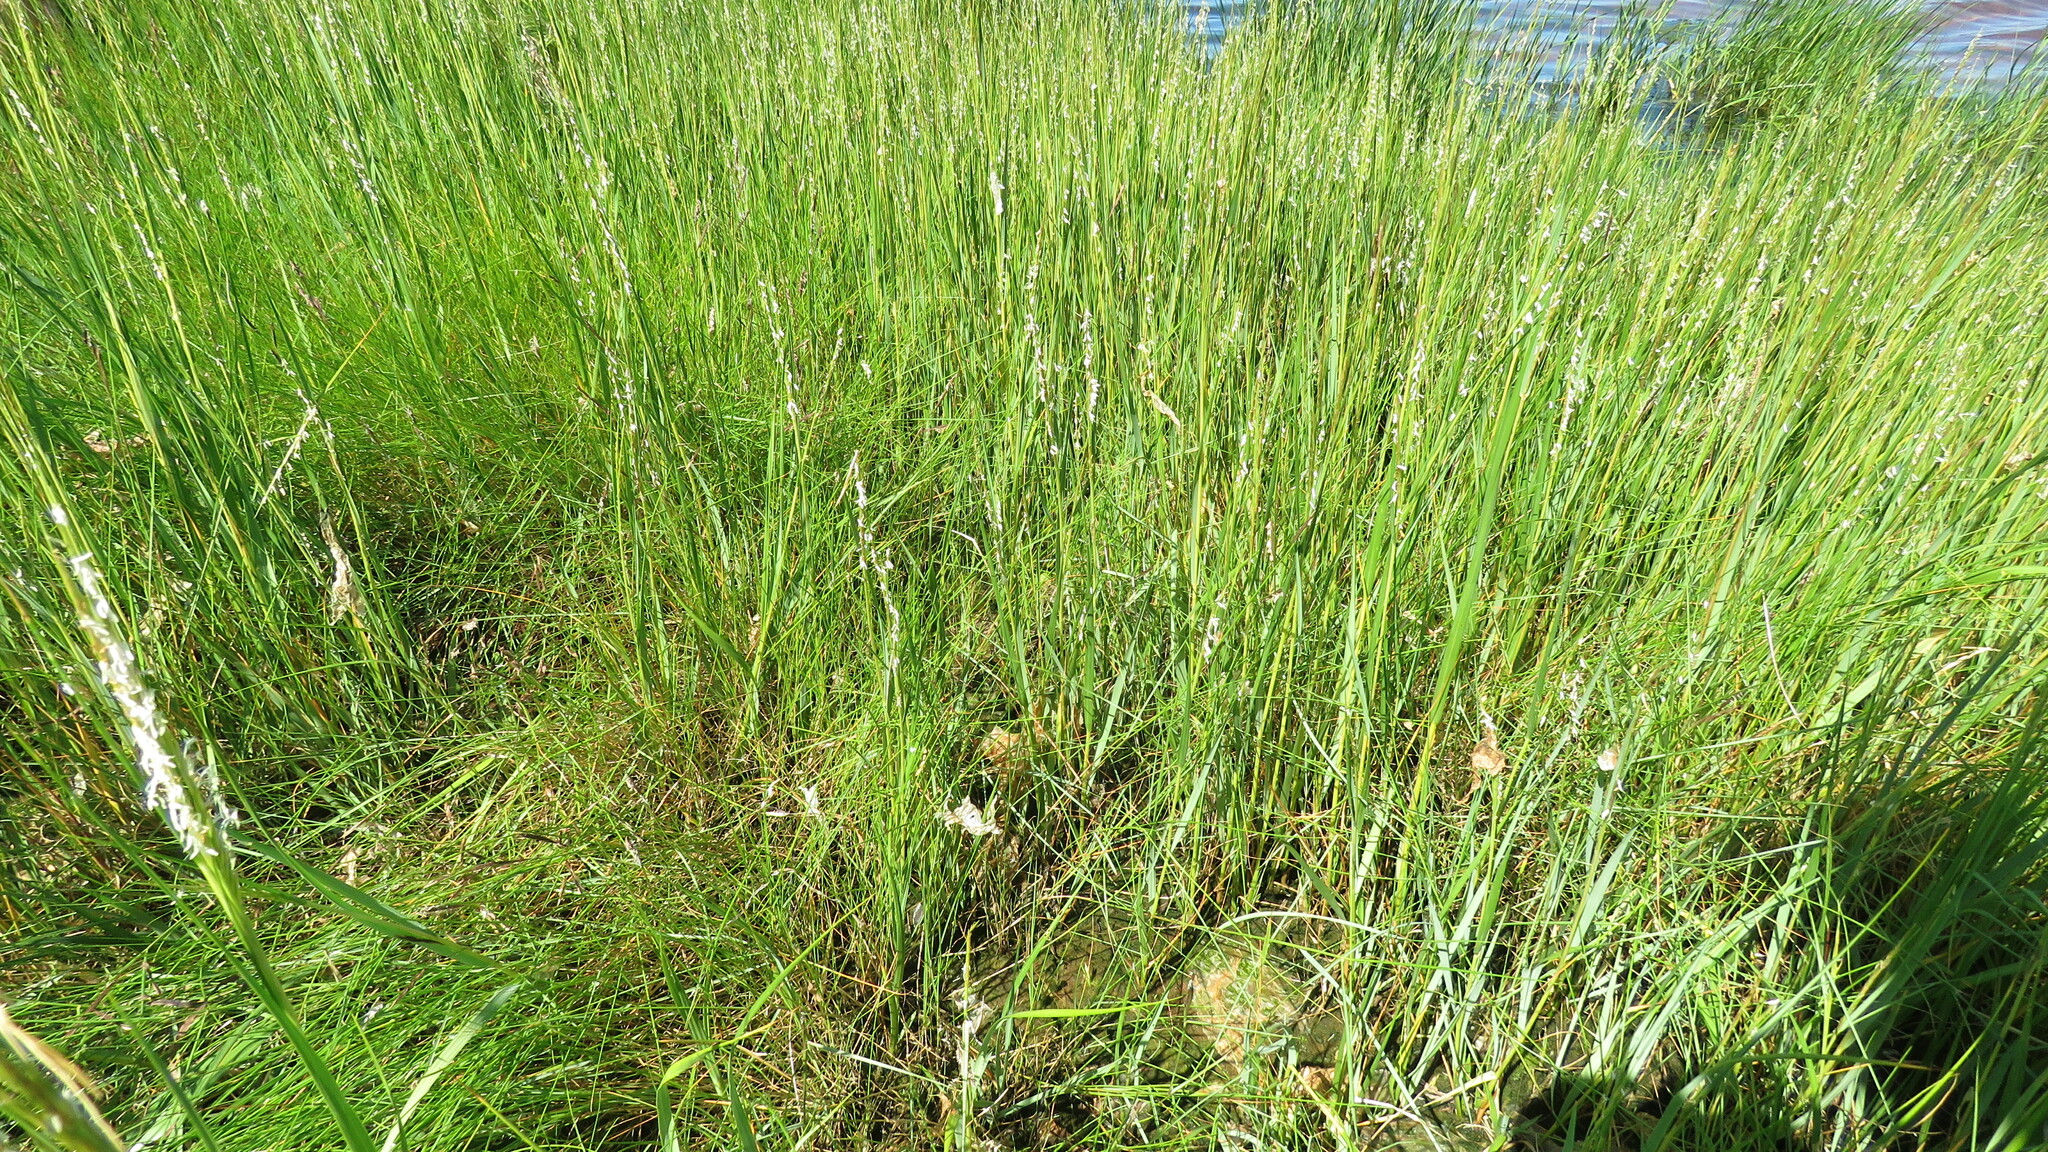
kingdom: Plantae
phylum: Tracheophyta
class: Liliopsida
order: Poales
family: Poaceae
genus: Sporobolus
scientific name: Sporobolus alterniflorus
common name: Atlantic cordgrass
